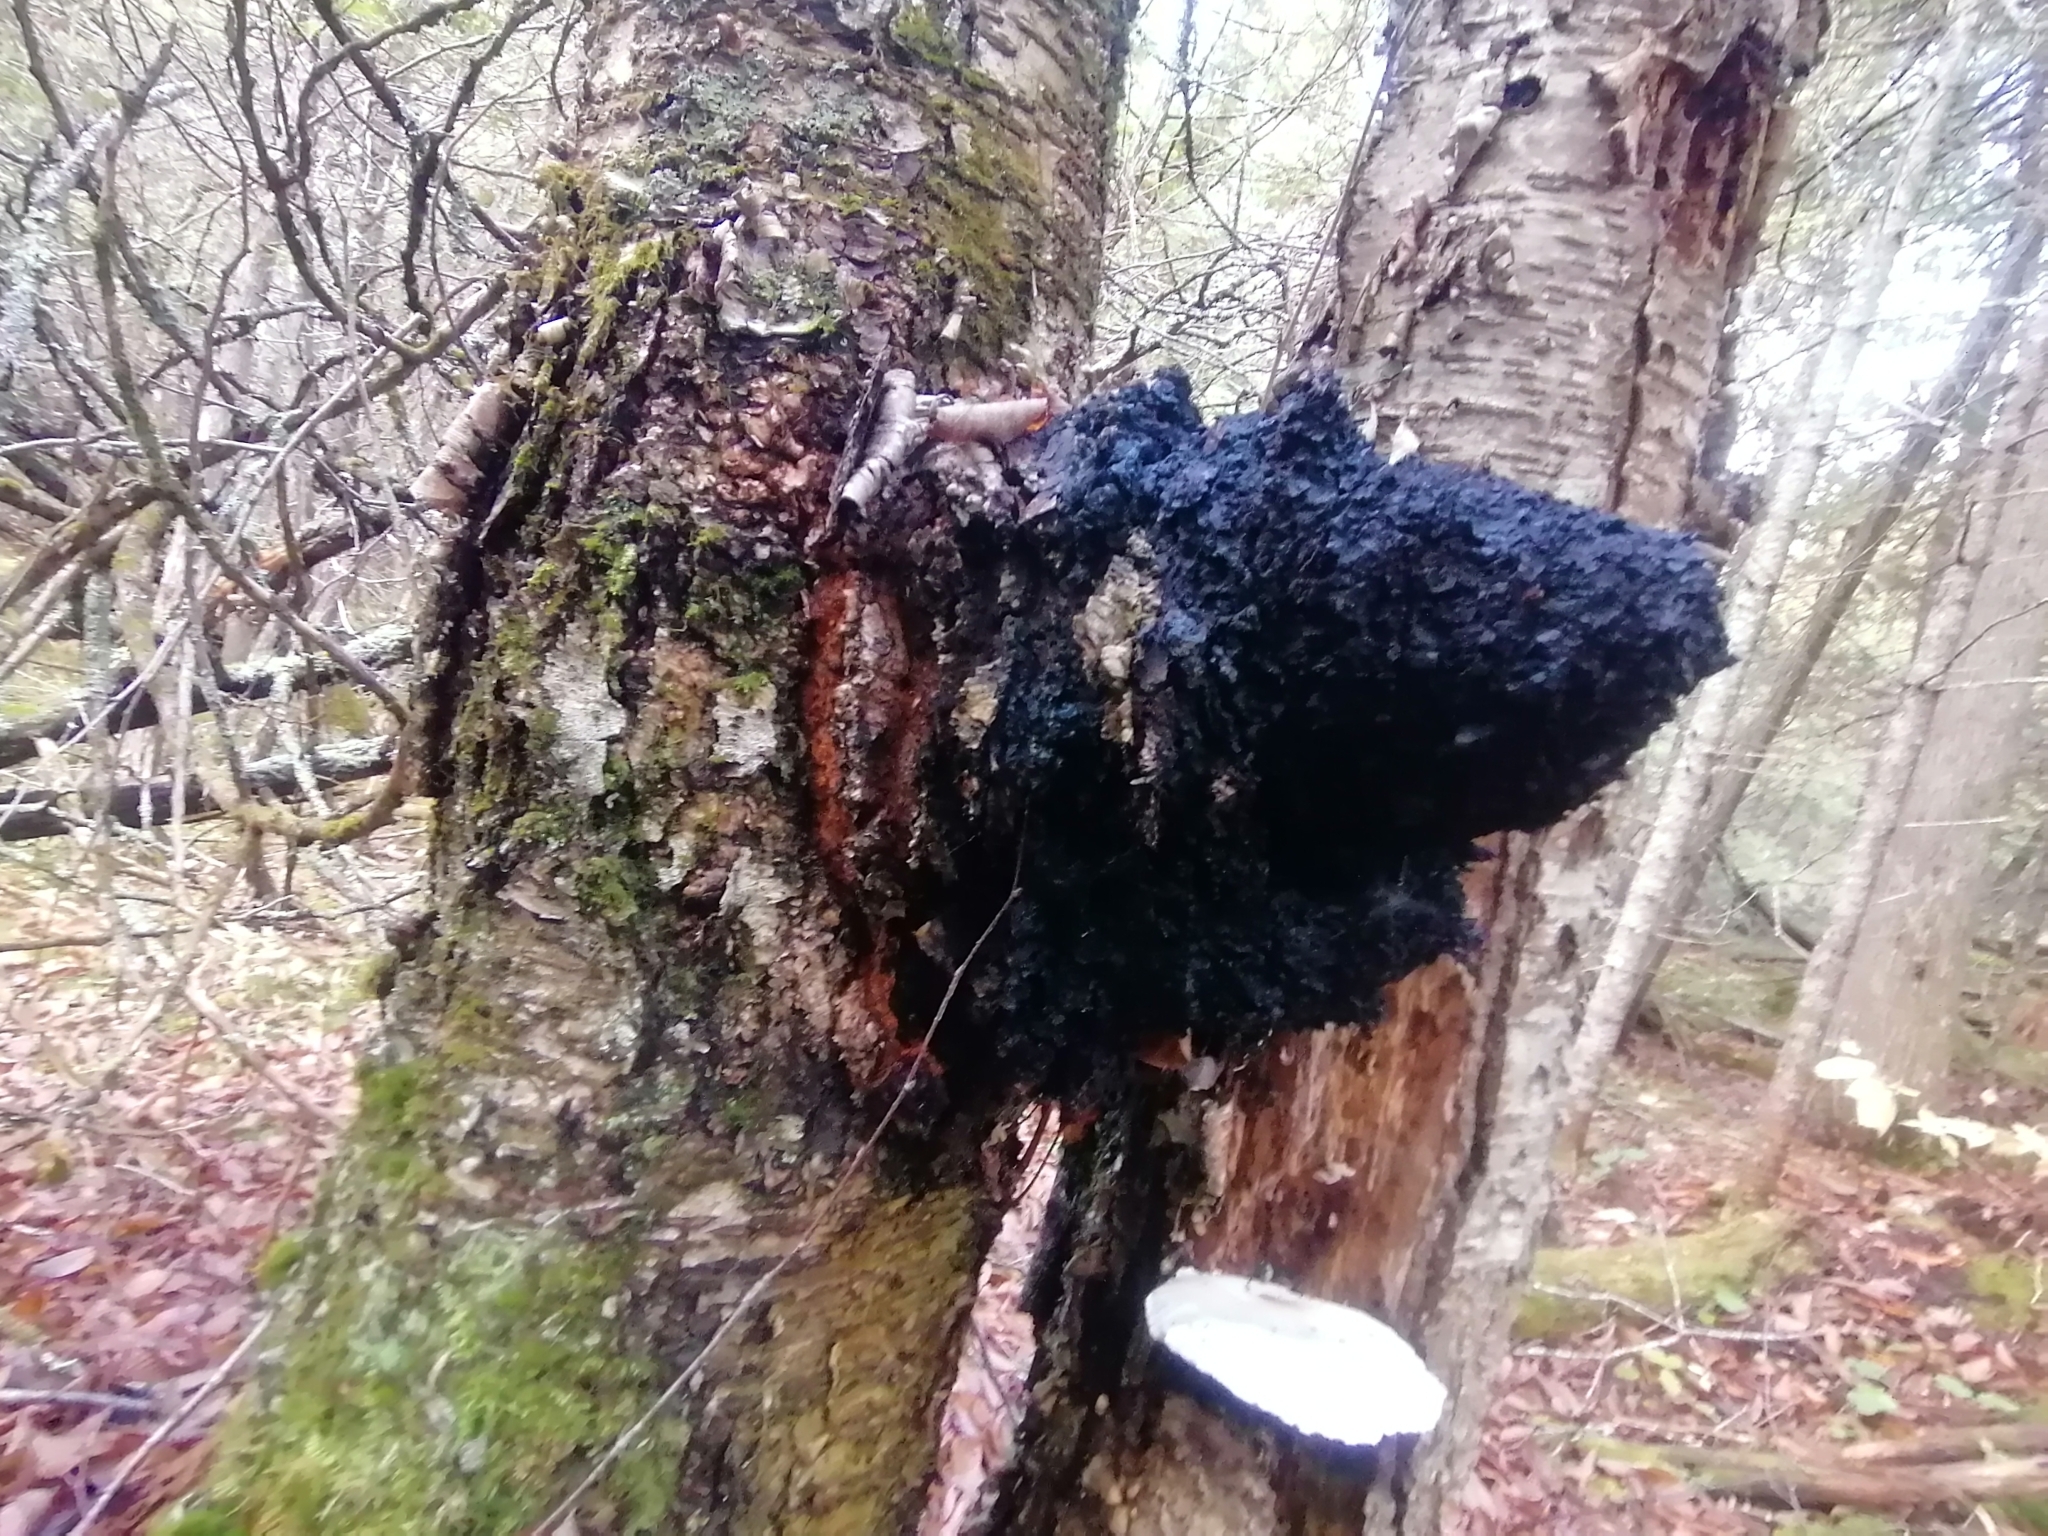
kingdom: Fungi
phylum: Basidiomycota
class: Agaricomycetes
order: Hymenochaetales
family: Hymenochaetaceae
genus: Inonotus
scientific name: Inonotus obliquus
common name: Chaga
